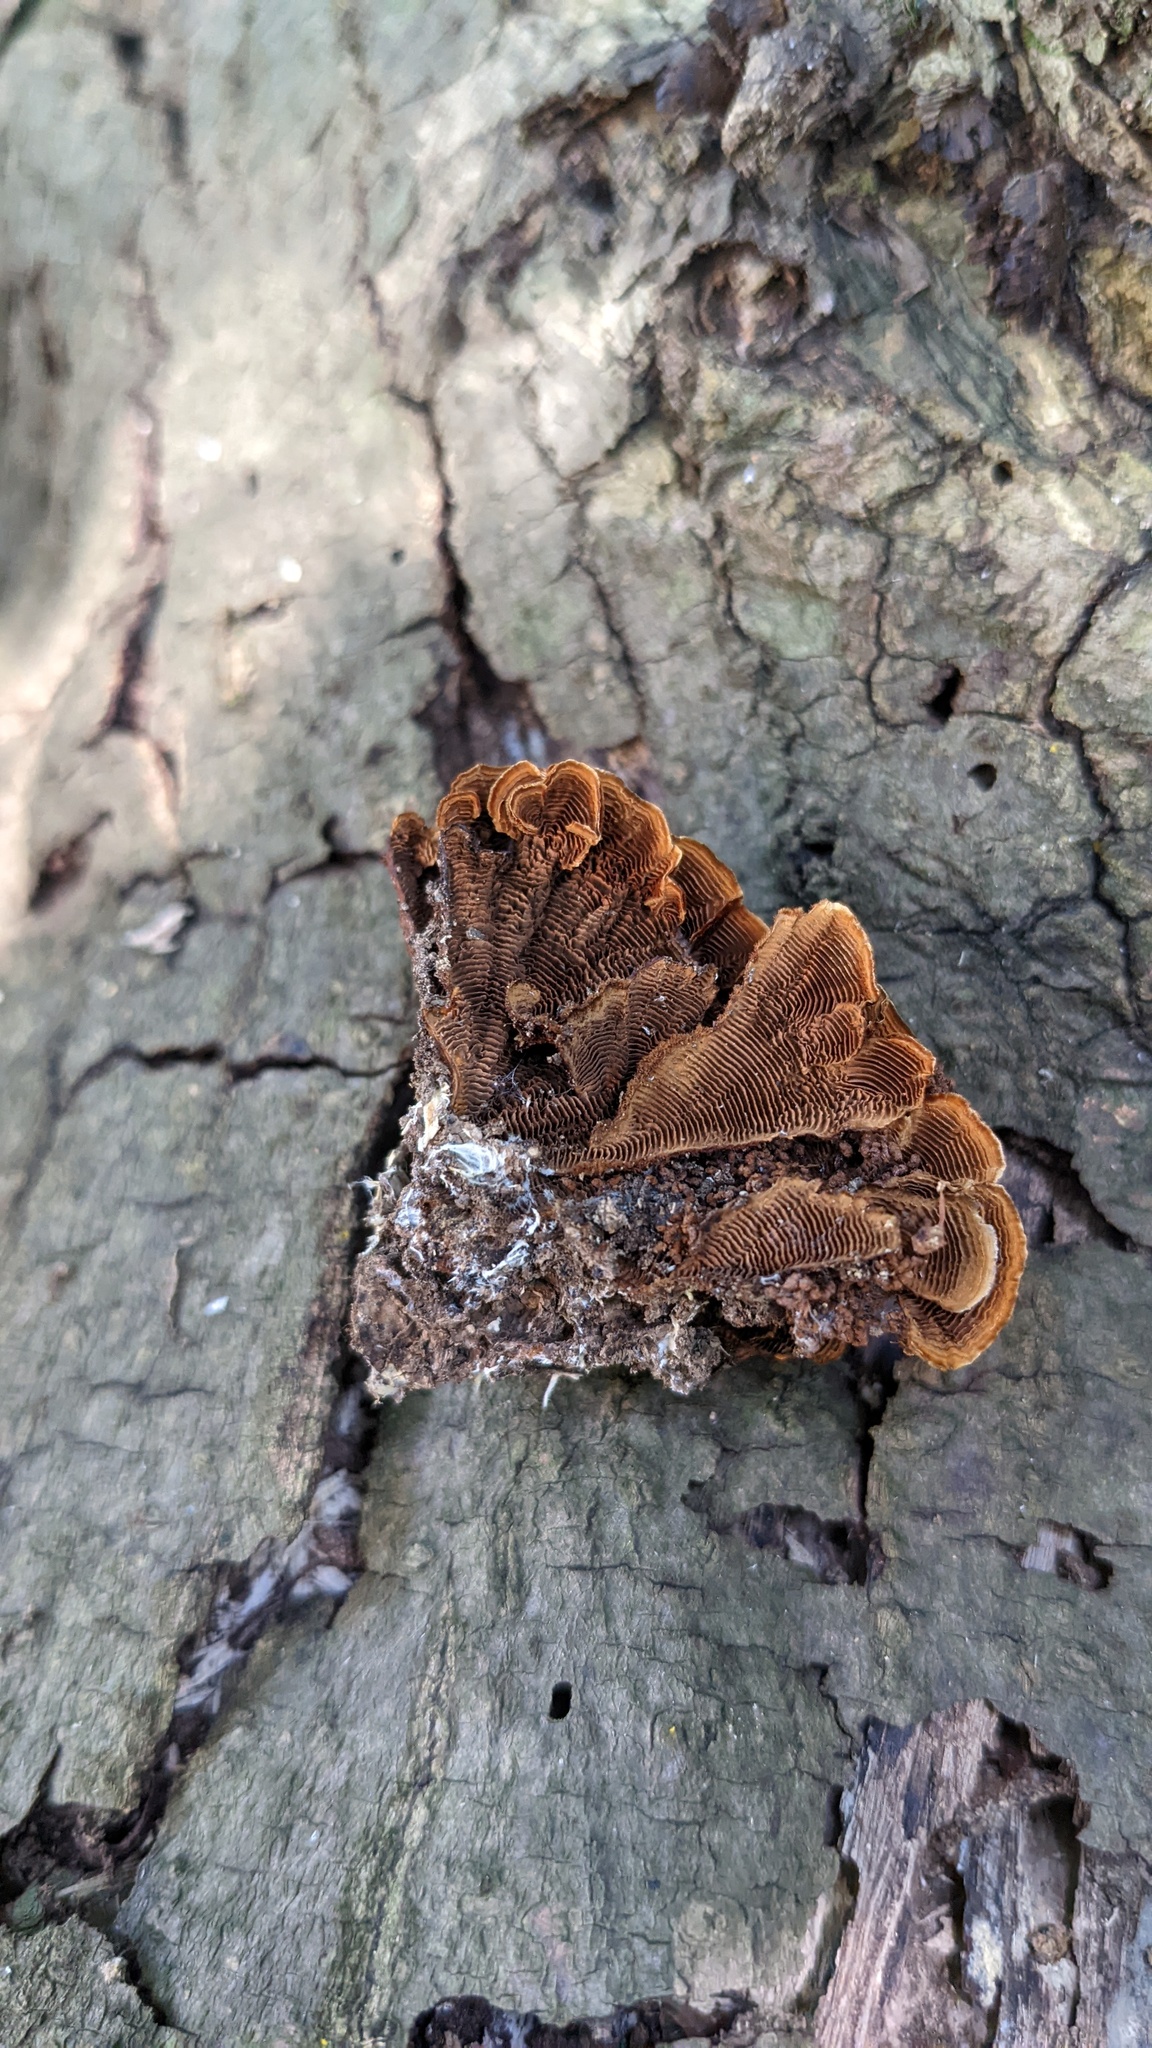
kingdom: Fungi
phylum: Basidiomycota
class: Agaricomycetes
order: Hymenochaetales
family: Hymenochaetaceae
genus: Hymenochaete
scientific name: Hymenochaete cyclolamellata
